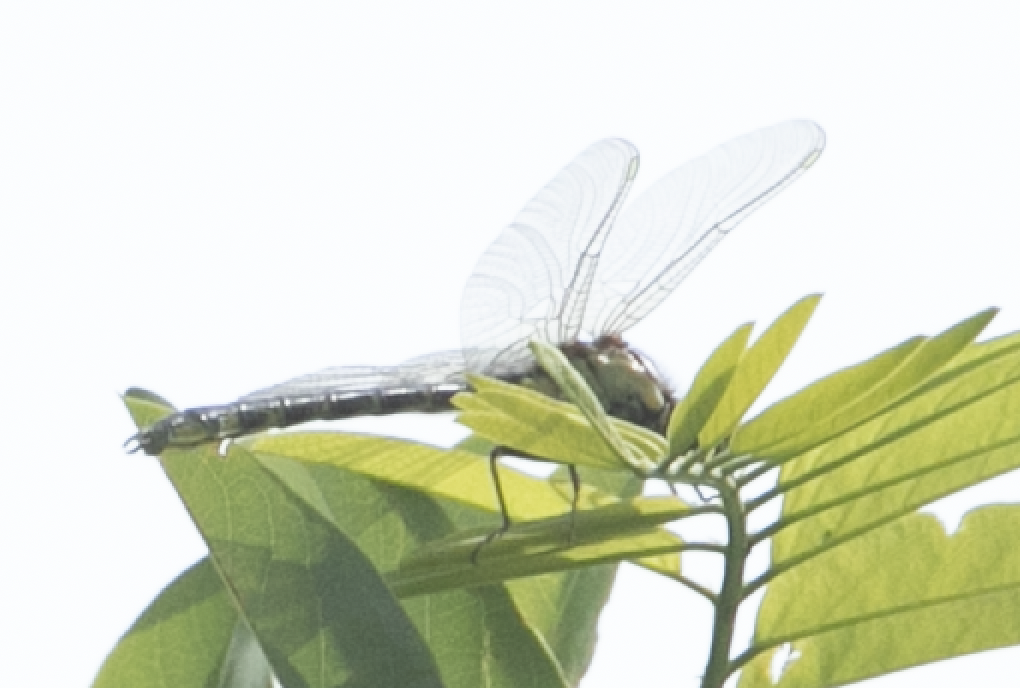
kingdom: Animalia
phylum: Arthropoda
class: Insecta
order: Odonata
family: Gomphidae
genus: Gomphus
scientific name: Gomphus vulgatissimus
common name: Club-tailed dragonfly
